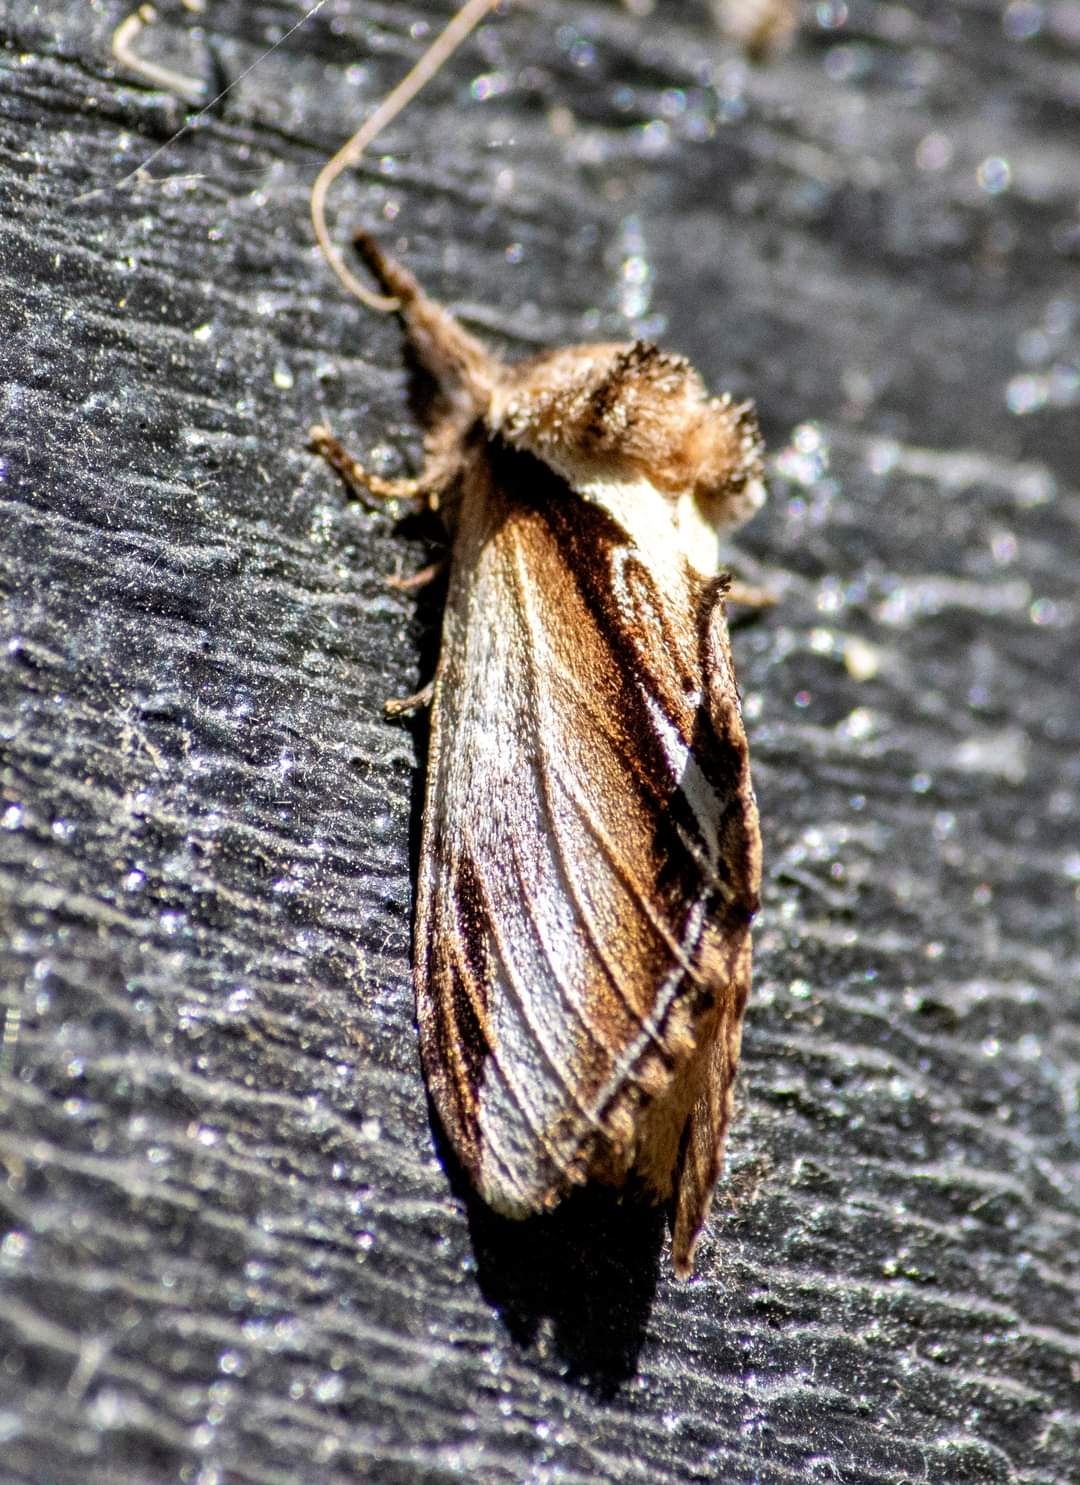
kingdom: Animalia
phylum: Arthropoda
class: Insecta
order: Lepidoptera
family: Notodontidae
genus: Pheosia
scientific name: Pheosia gnoma
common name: Lesser swallow prominent
